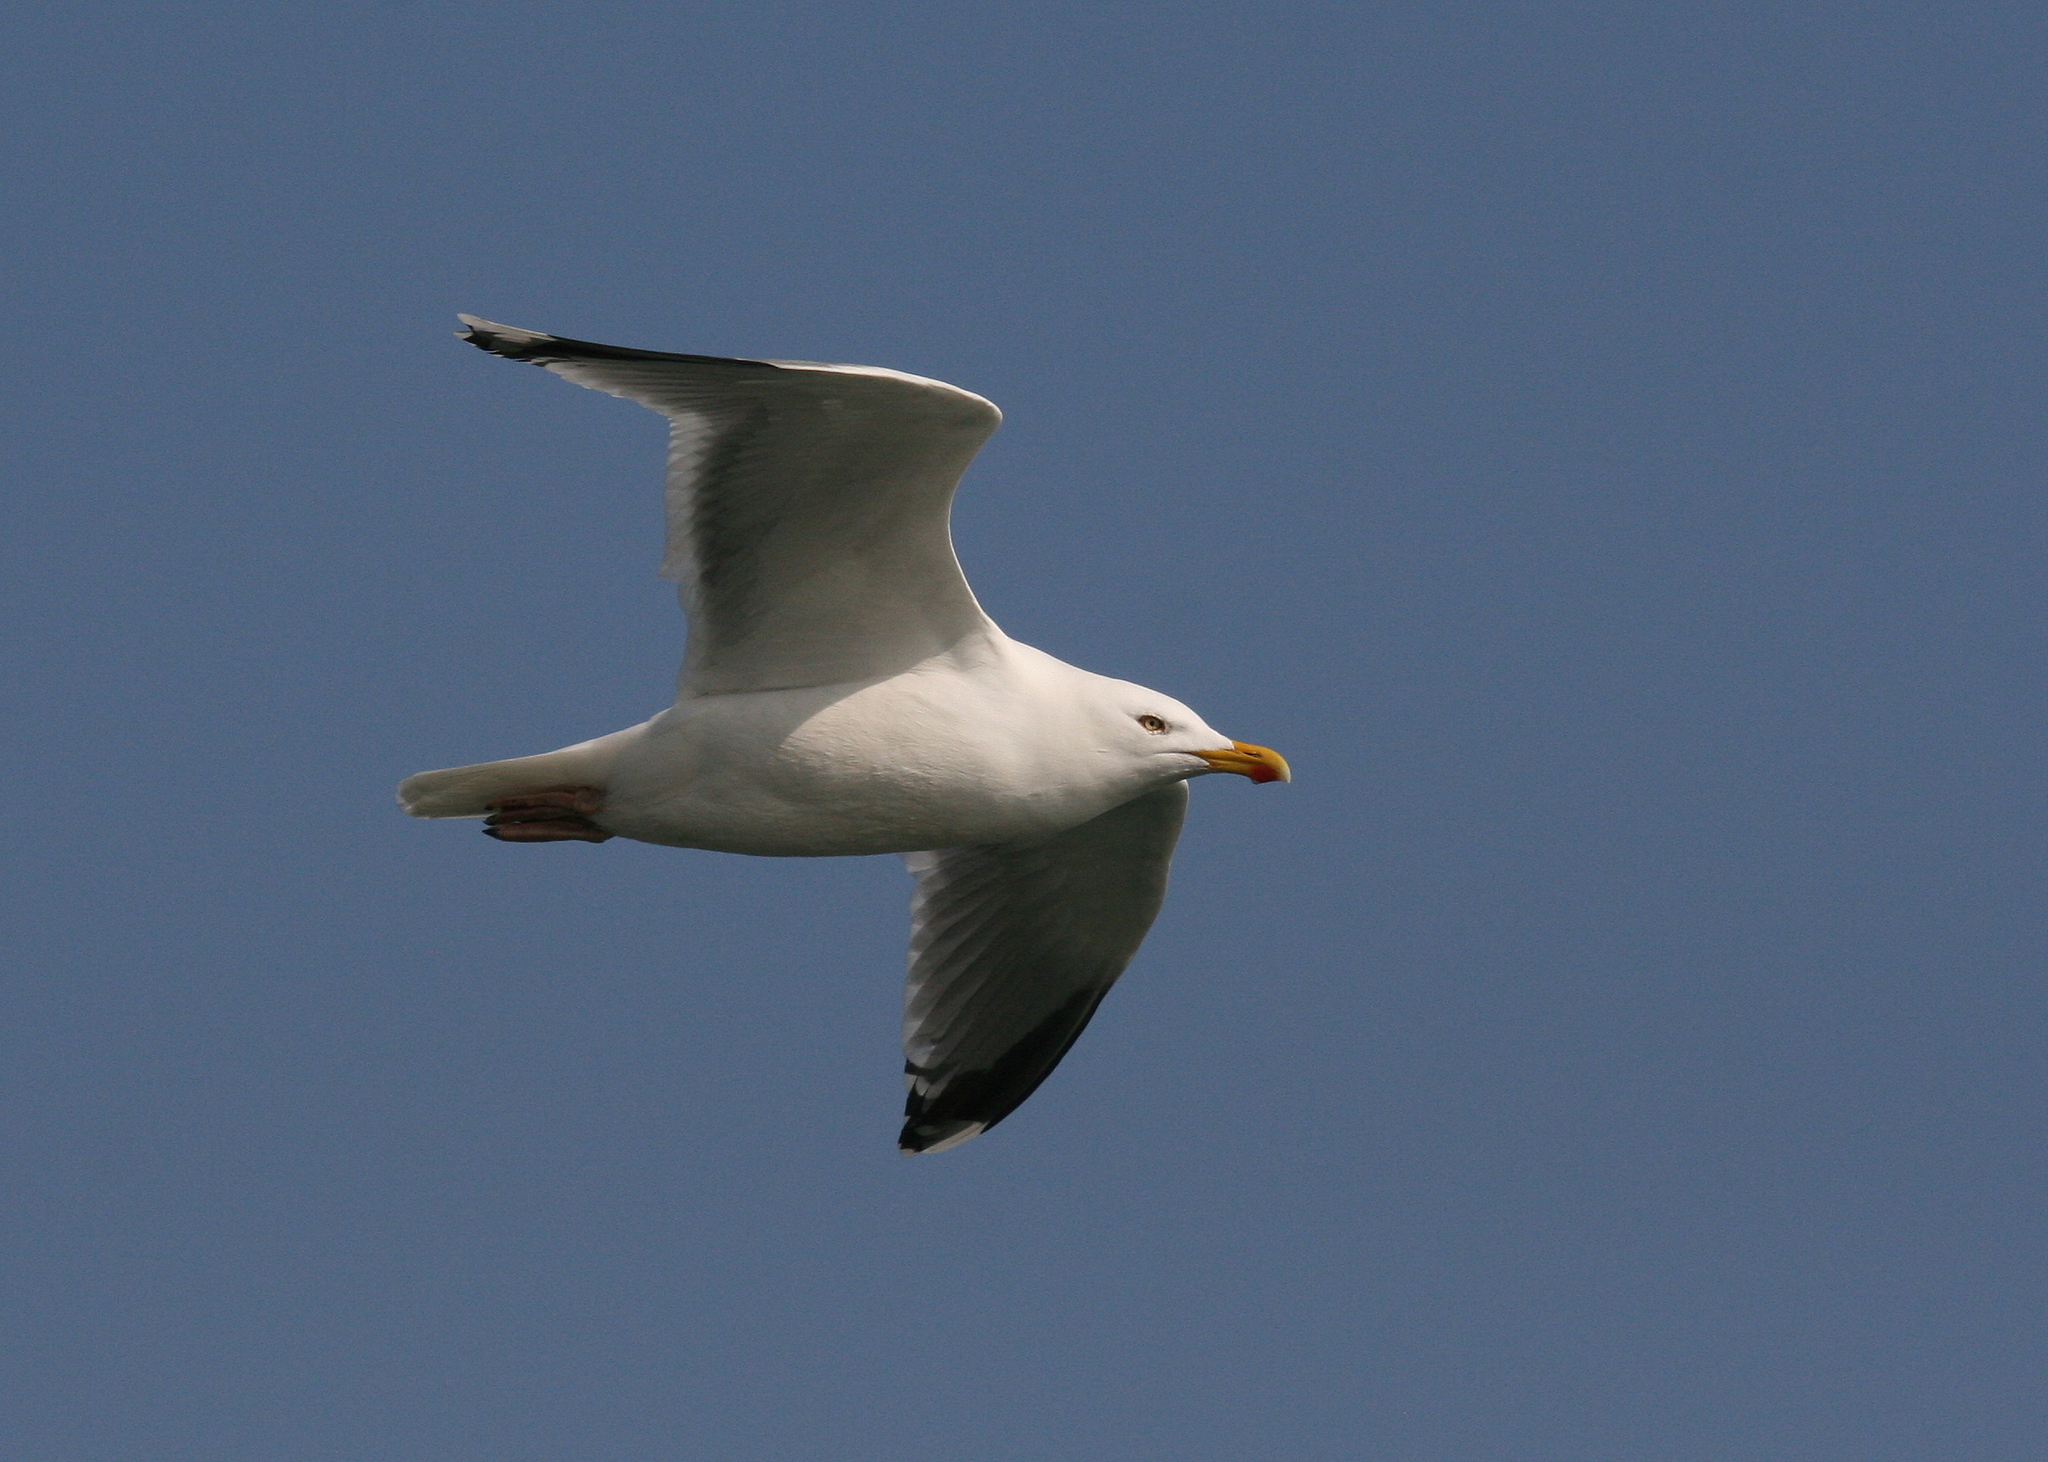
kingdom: Animalia
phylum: Chordata
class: Aves
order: Charadriiformes
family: Laridae
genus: Larus
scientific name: Larus argentatus
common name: Herring gull
